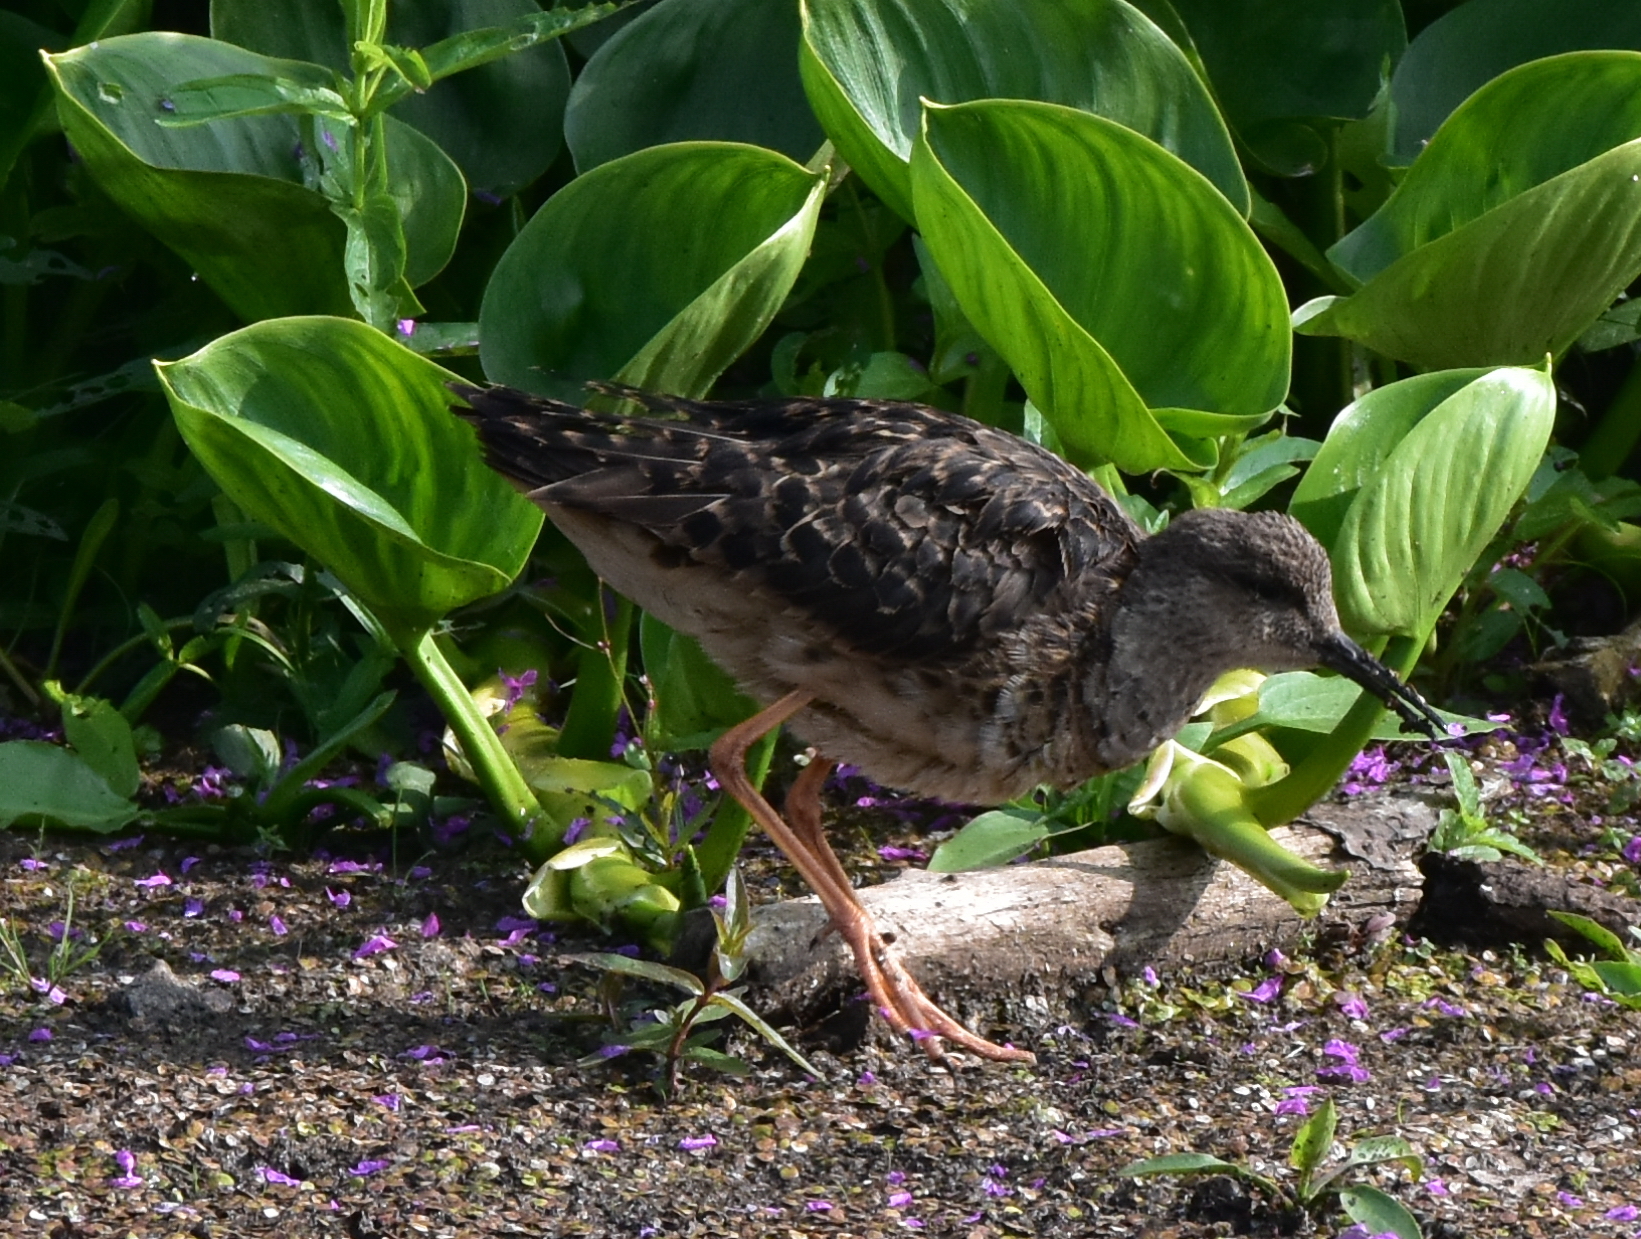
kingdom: Animalia
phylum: Chordata
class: Aves
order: Charadriiformes
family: Scolopacidae
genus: Calidris
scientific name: Calidris pugnax
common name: Ruff
